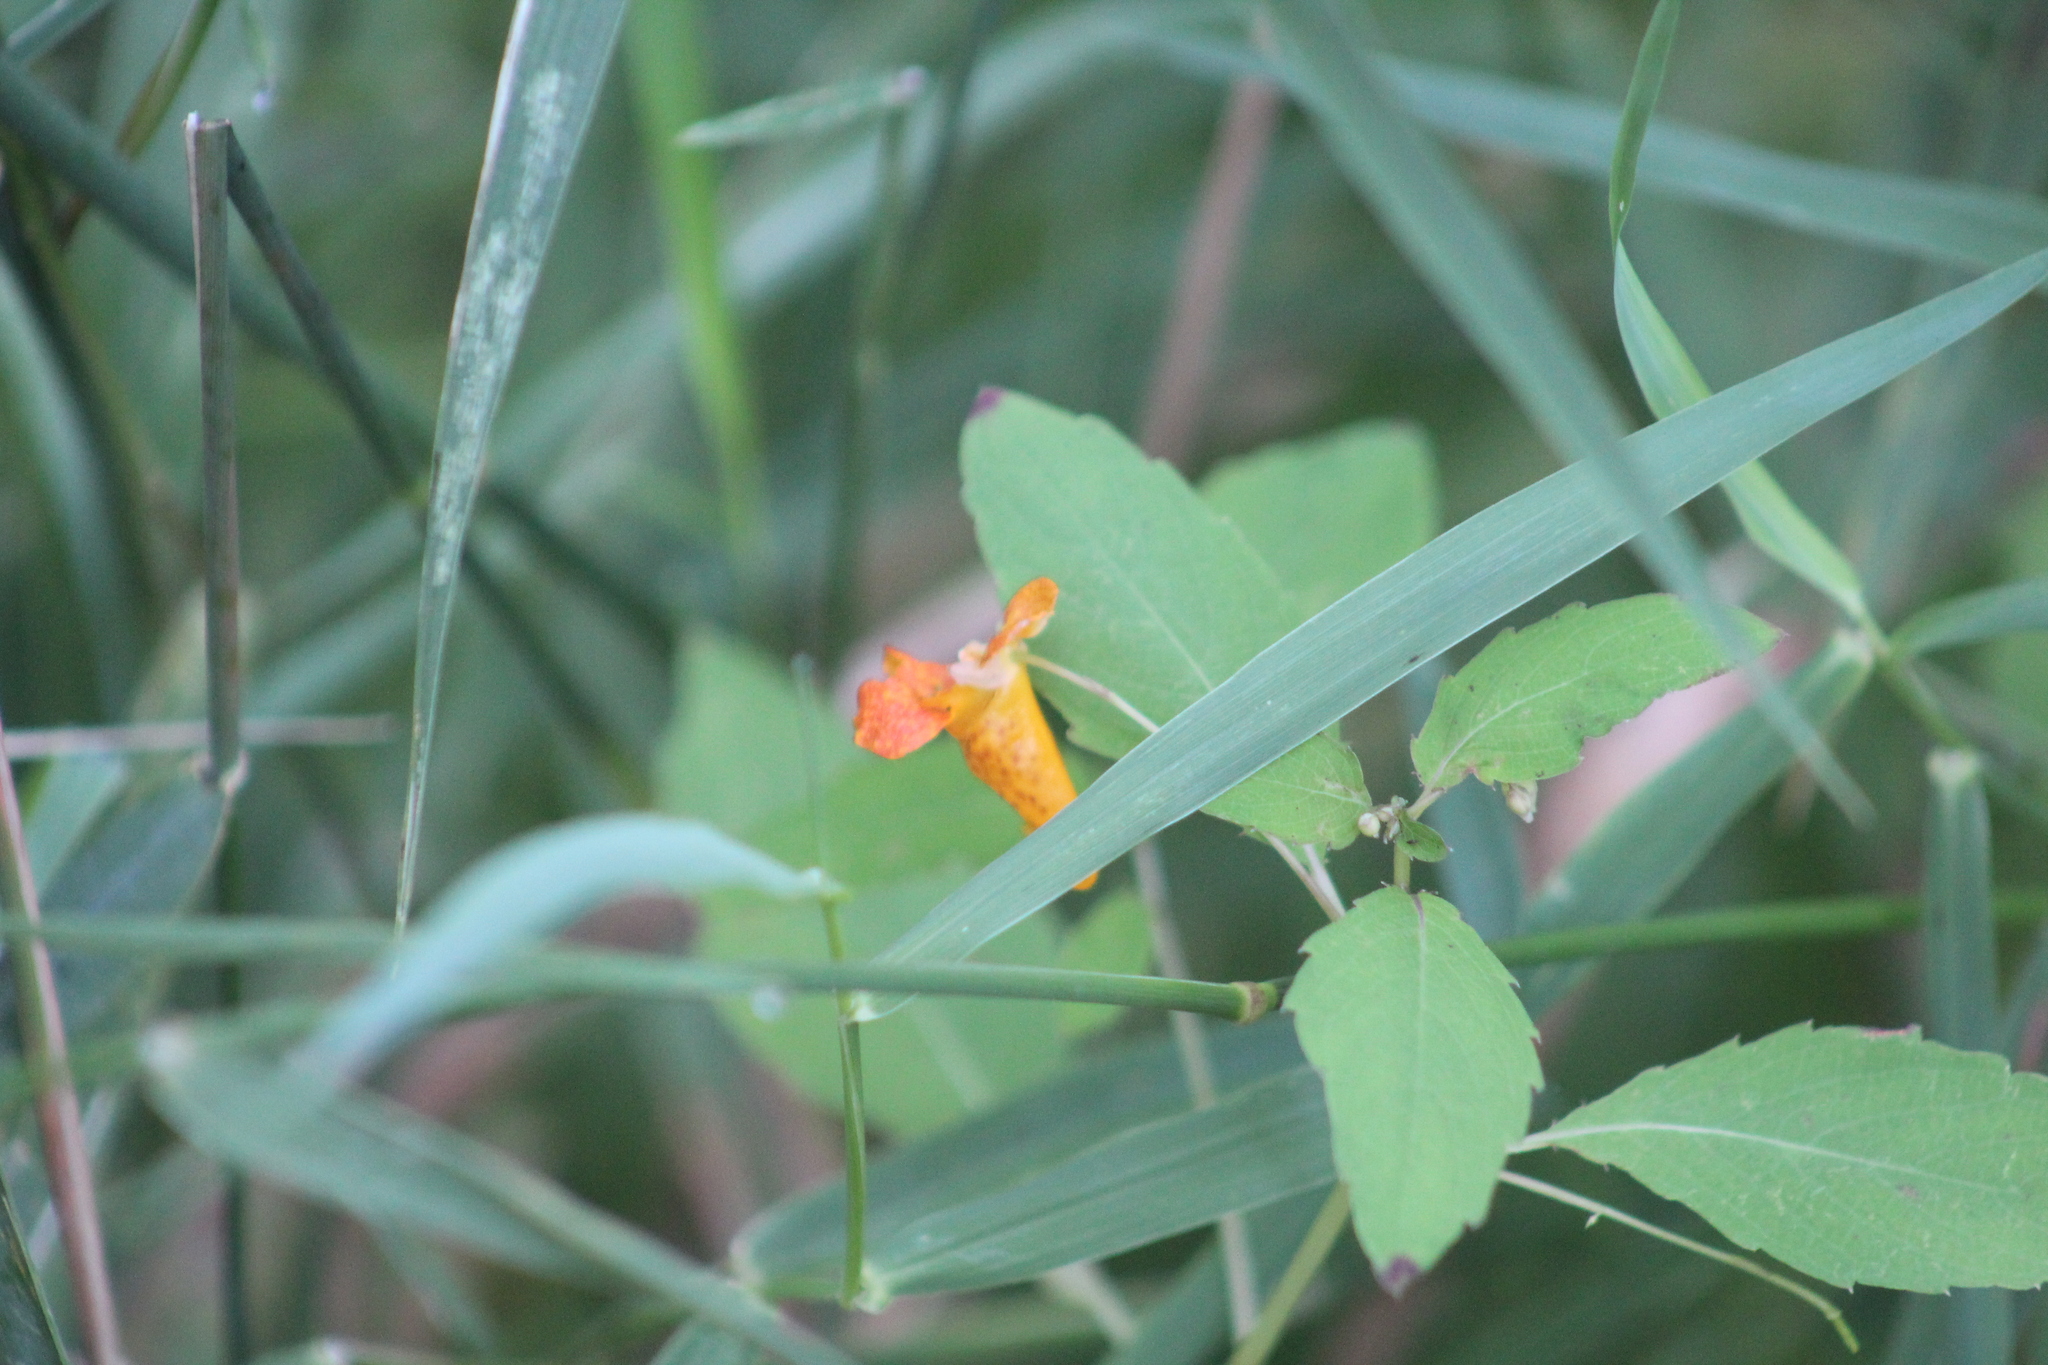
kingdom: Plantae
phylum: Tracheophyta
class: Magnoliopsida
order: Ericales
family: Balsaminaceae
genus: Impatiens
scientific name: Impatiens capensis
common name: Orange balsam
